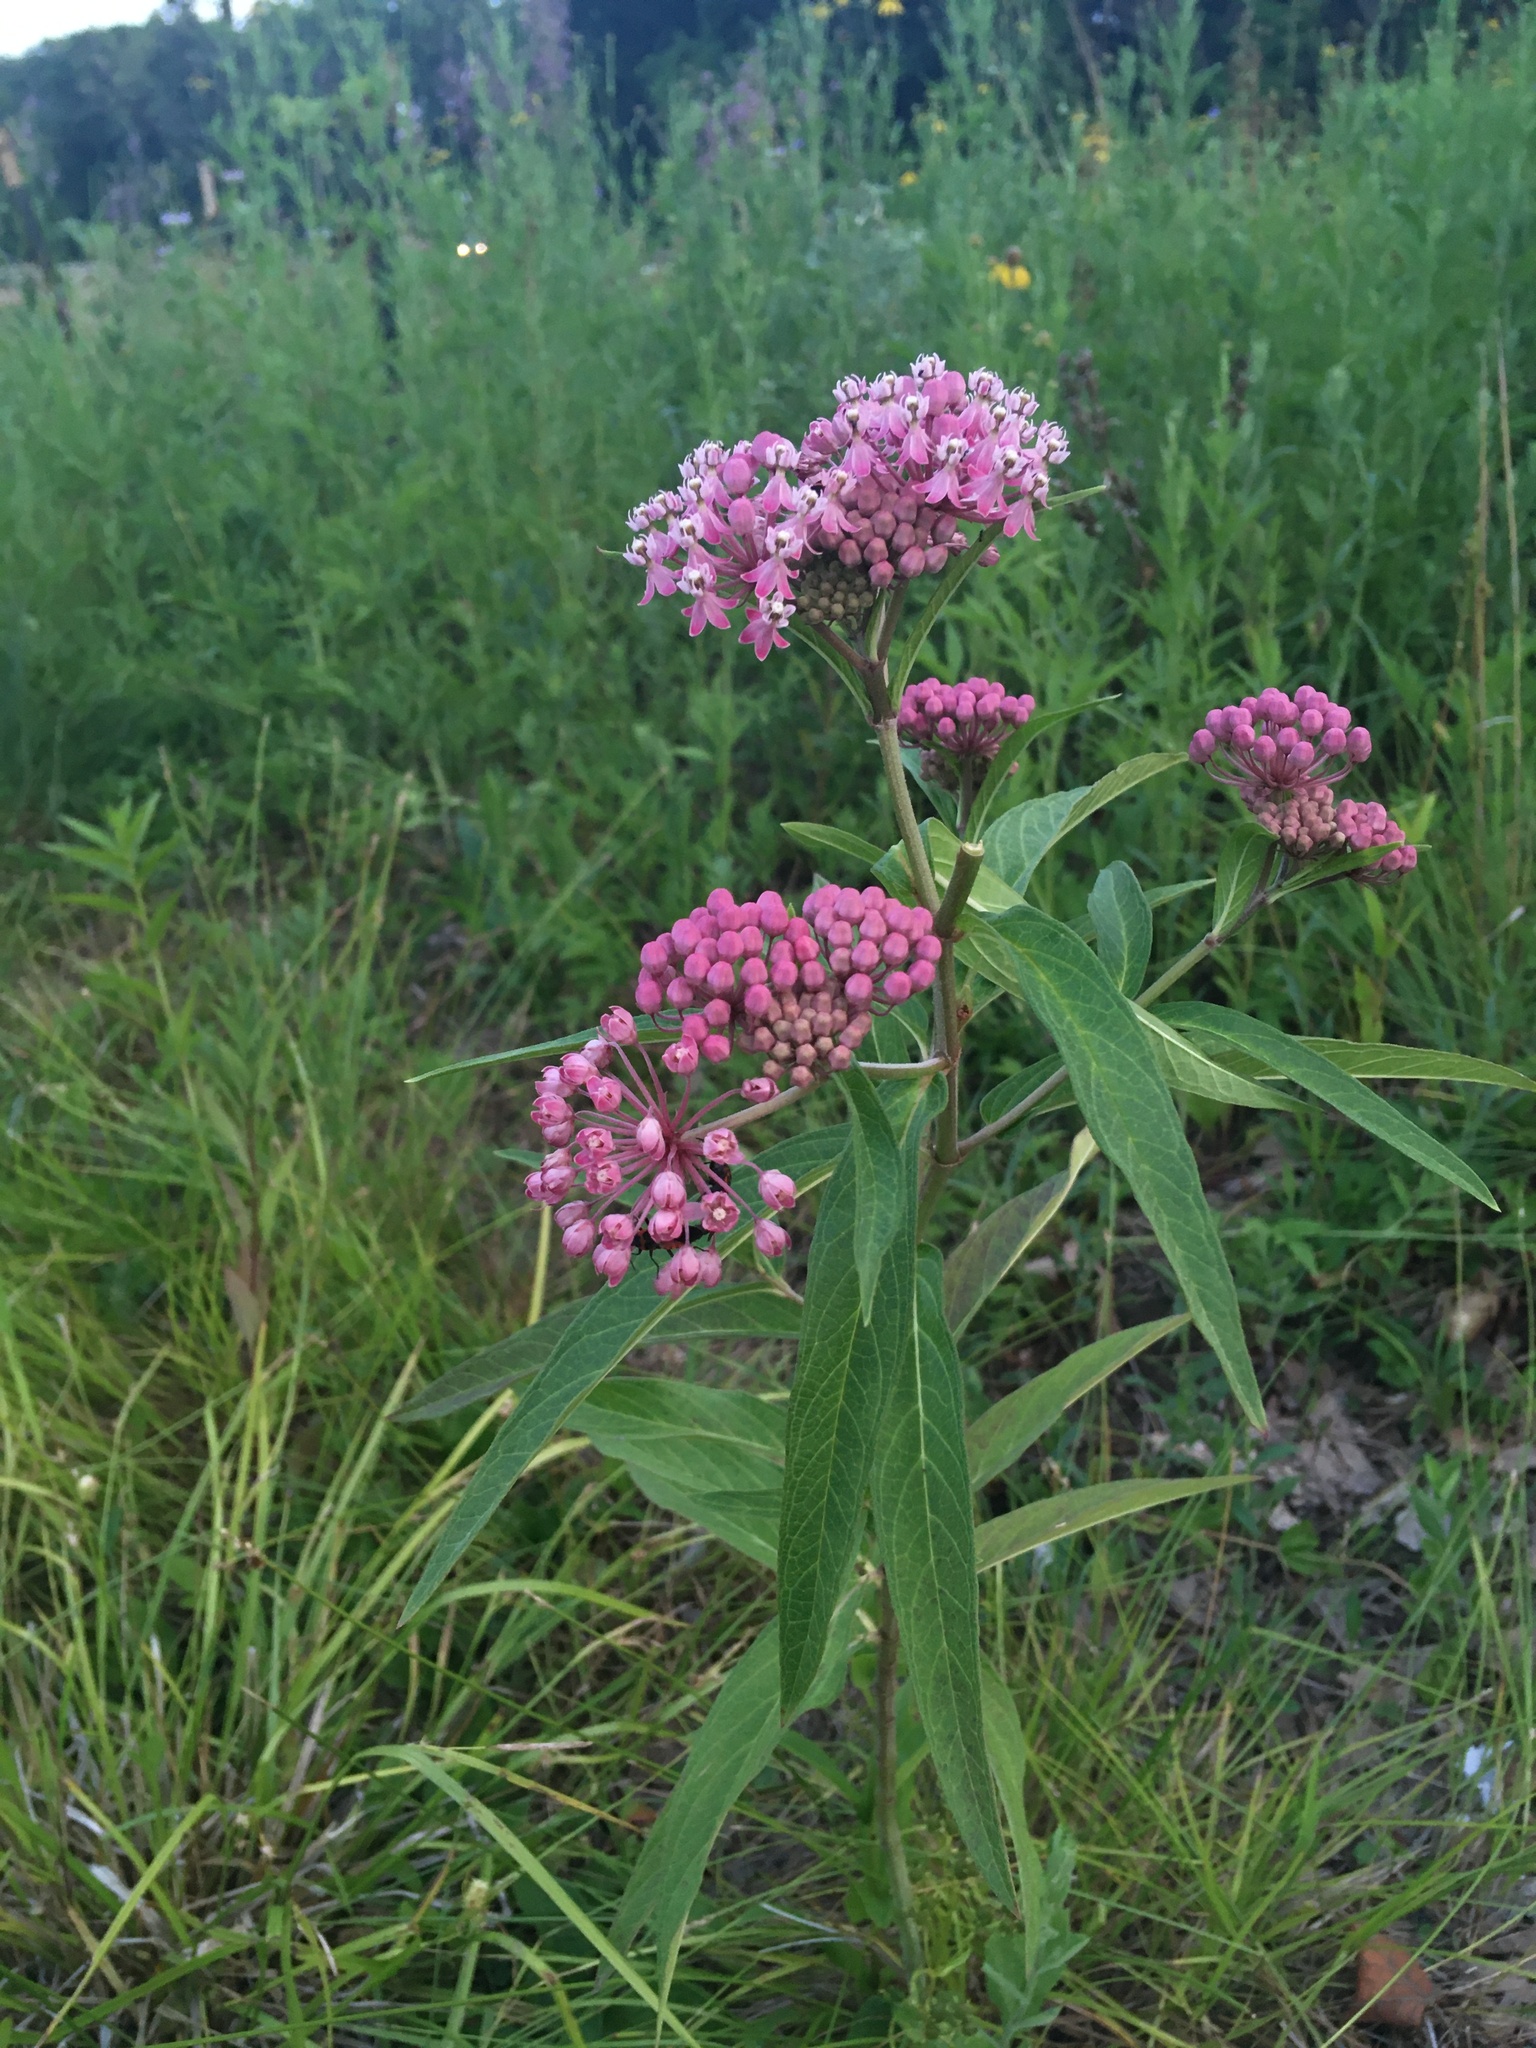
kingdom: Plantae
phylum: Tracheophyta
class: Magnoliopsida
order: Gentianales
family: Apocynaceae
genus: Asclepias
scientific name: Asclepias incarnata
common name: Swamp milkweed
